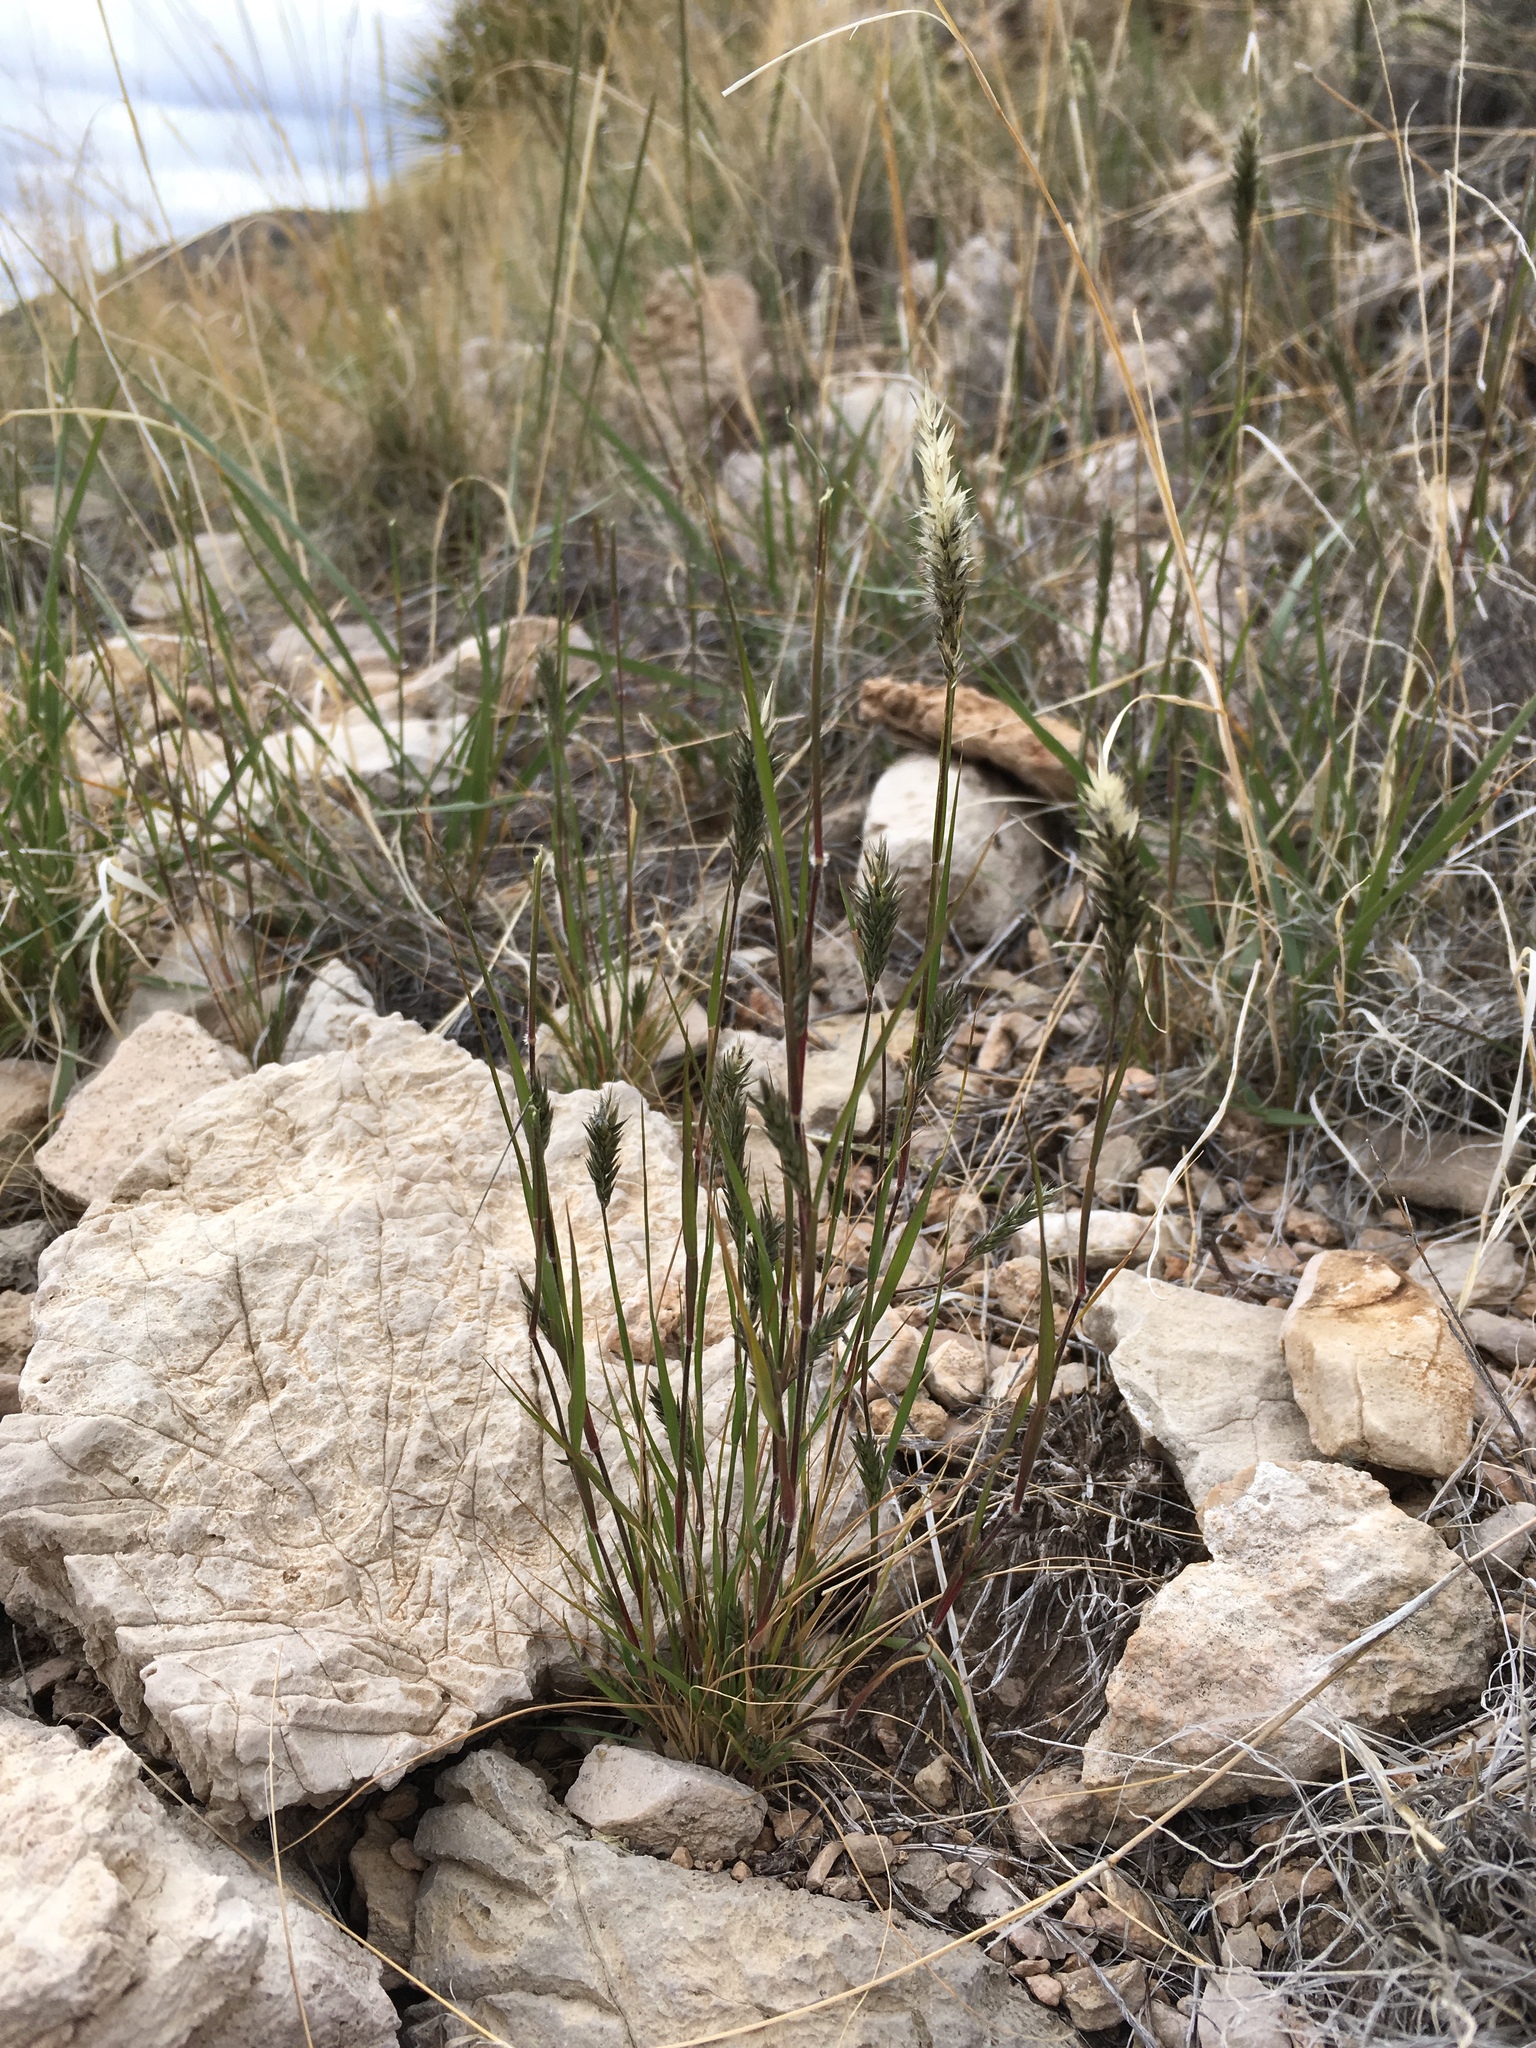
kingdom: Plantae
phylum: Tracheophyta
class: Liliopsida
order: Poales
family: Poaceae
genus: Enneapogon
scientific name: Enneapogon desvauxii
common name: Feather pappus grass
